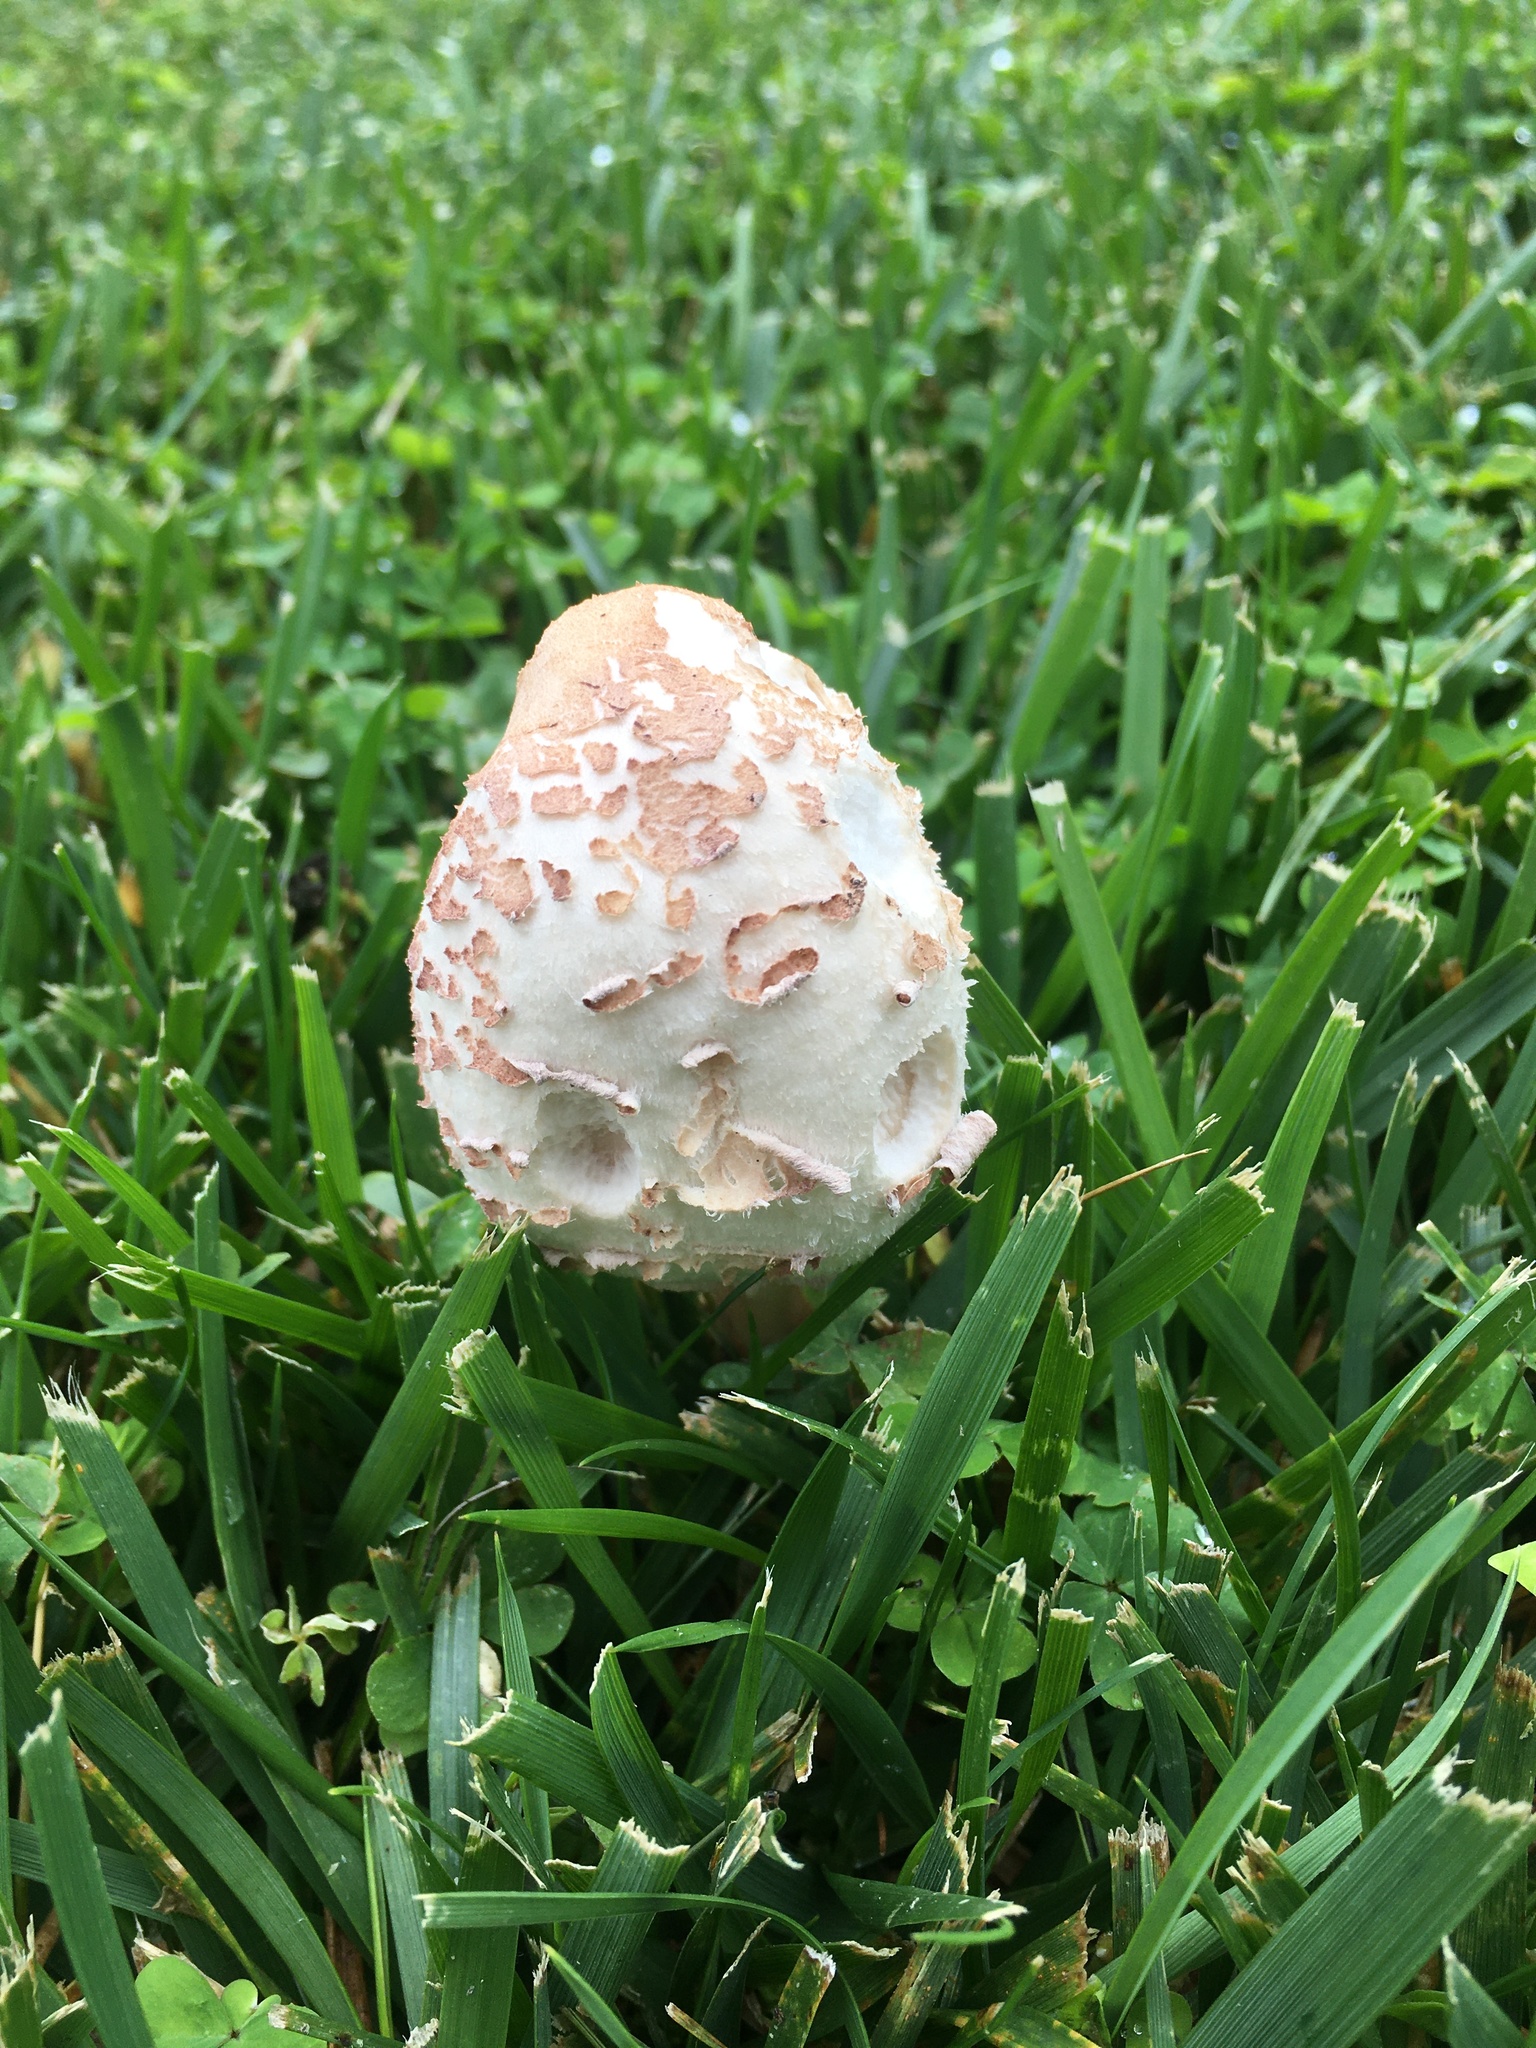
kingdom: Fungi
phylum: Basidiomycota
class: Agaricomycetes
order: Agaricales
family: Agaricaceae
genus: Chlorophyllum
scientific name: Chlorophyllum molybdites
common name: False parasol
